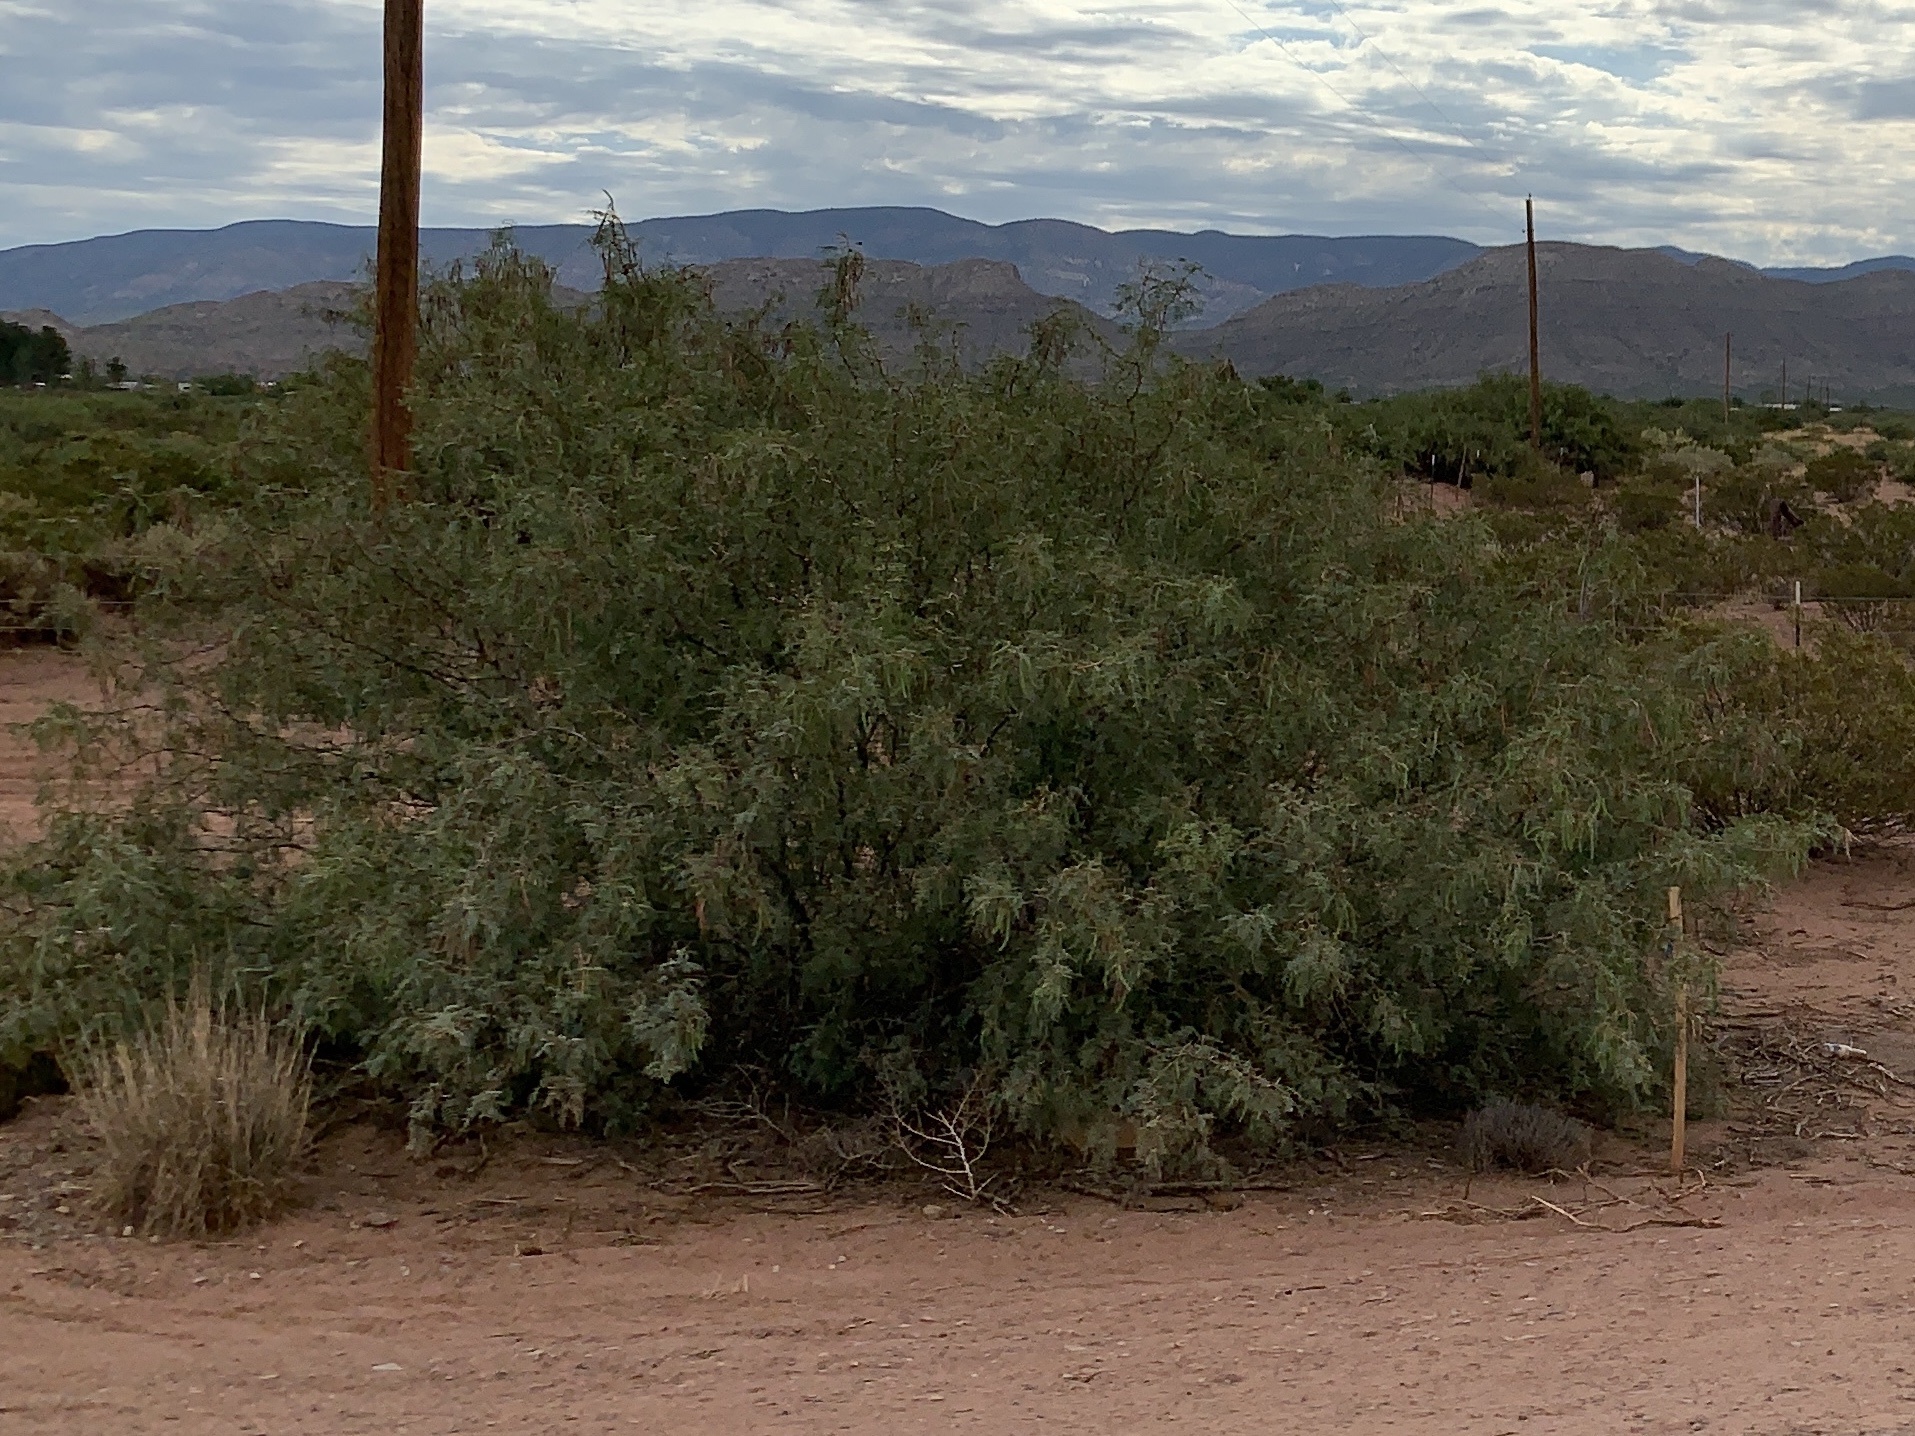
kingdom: Plantae
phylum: Tracheophyta
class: Magnoliopsida
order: Fabales
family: Fabaceae
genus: Prosopis
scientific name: Prosopis glandulosa
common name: Honey mesquite
